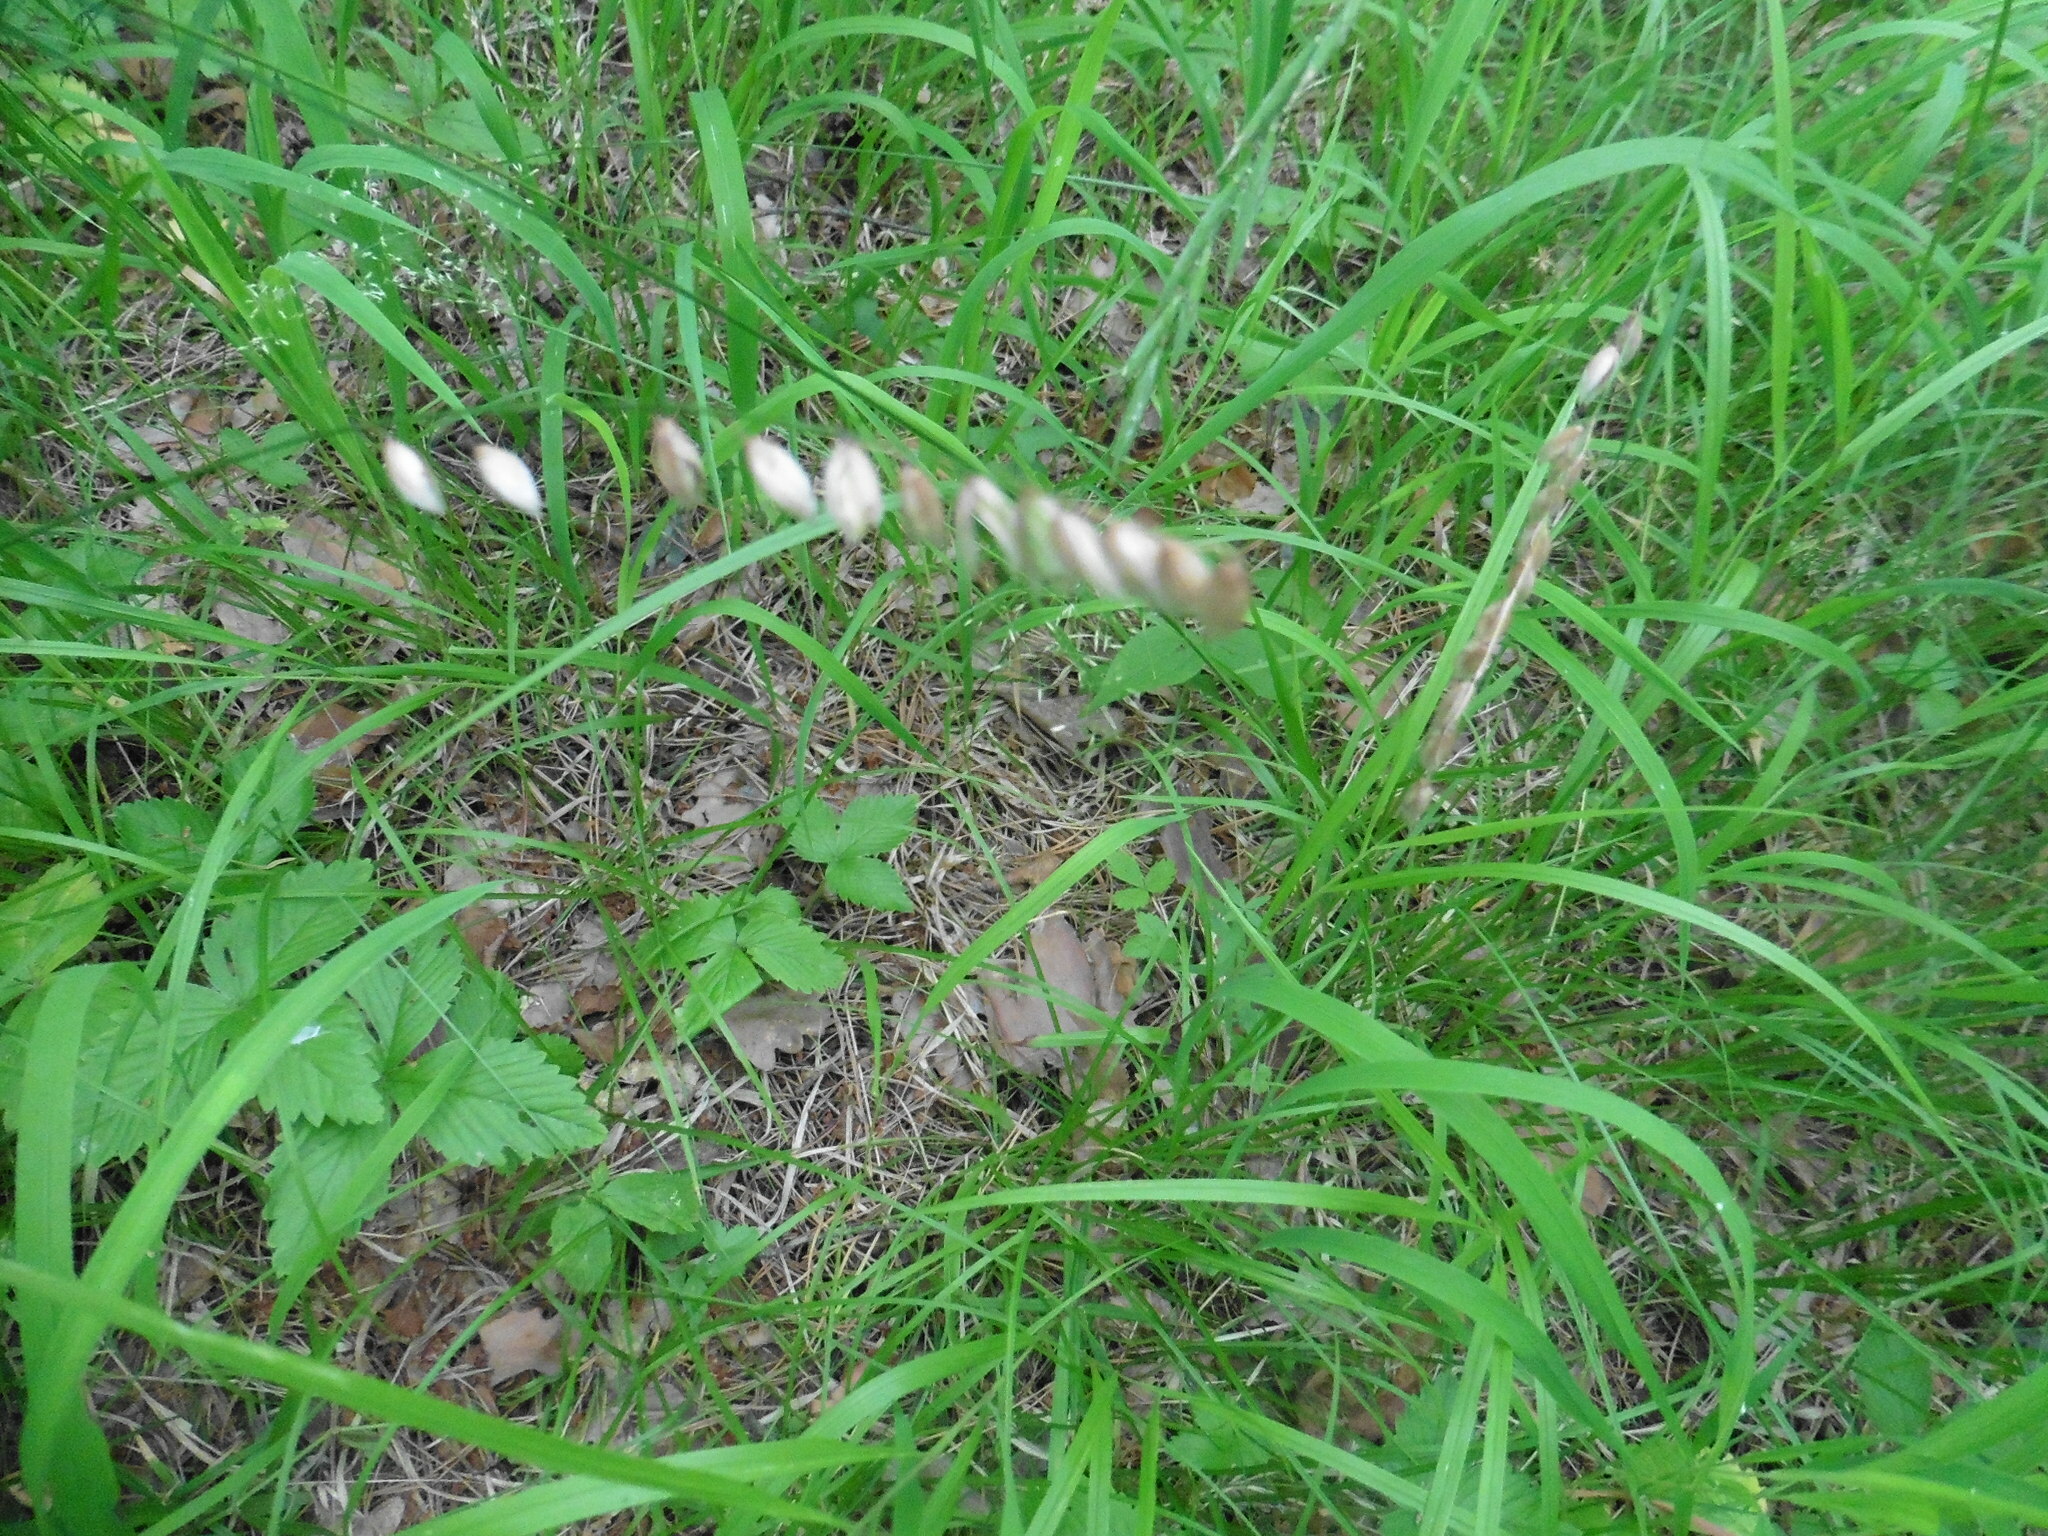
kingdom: Plantae
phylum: Tracheophyta
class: Liliopsida
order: Poales
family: Poaceae
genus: Melica
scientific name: Melica nutans
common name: Mountain melick
